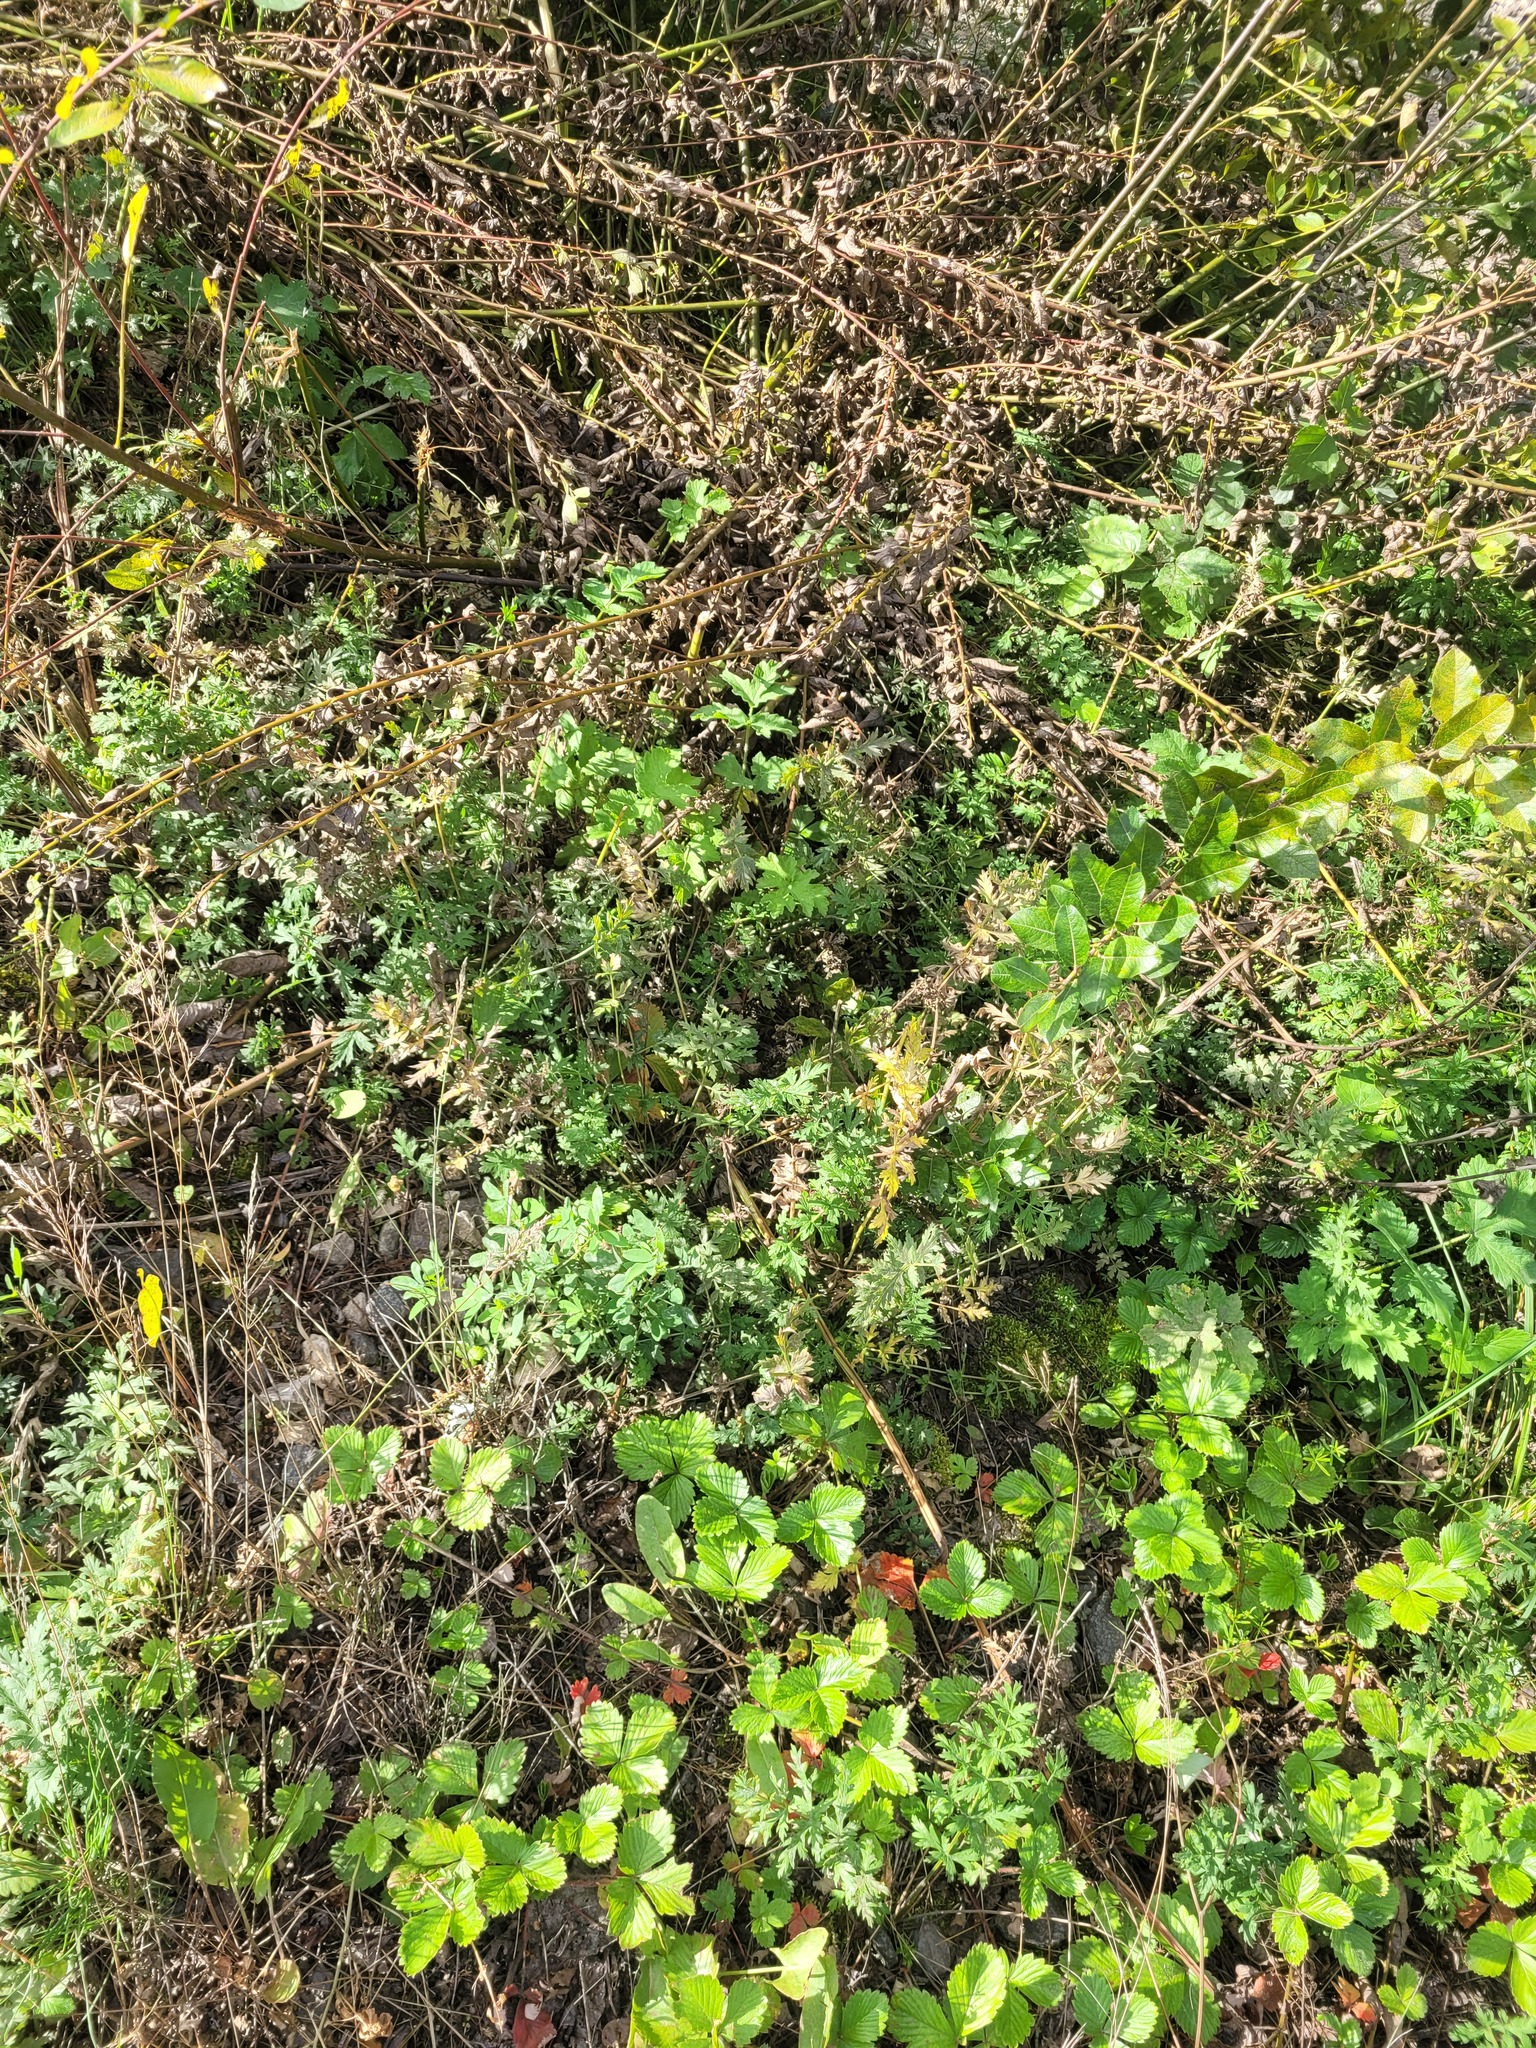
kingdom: Plantae
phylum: Tracheophyta
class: Magnoliopsida
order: Apiales
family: Apiaceae
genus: Seseli
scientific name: Seseli libanotis
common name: Mooncarrot
